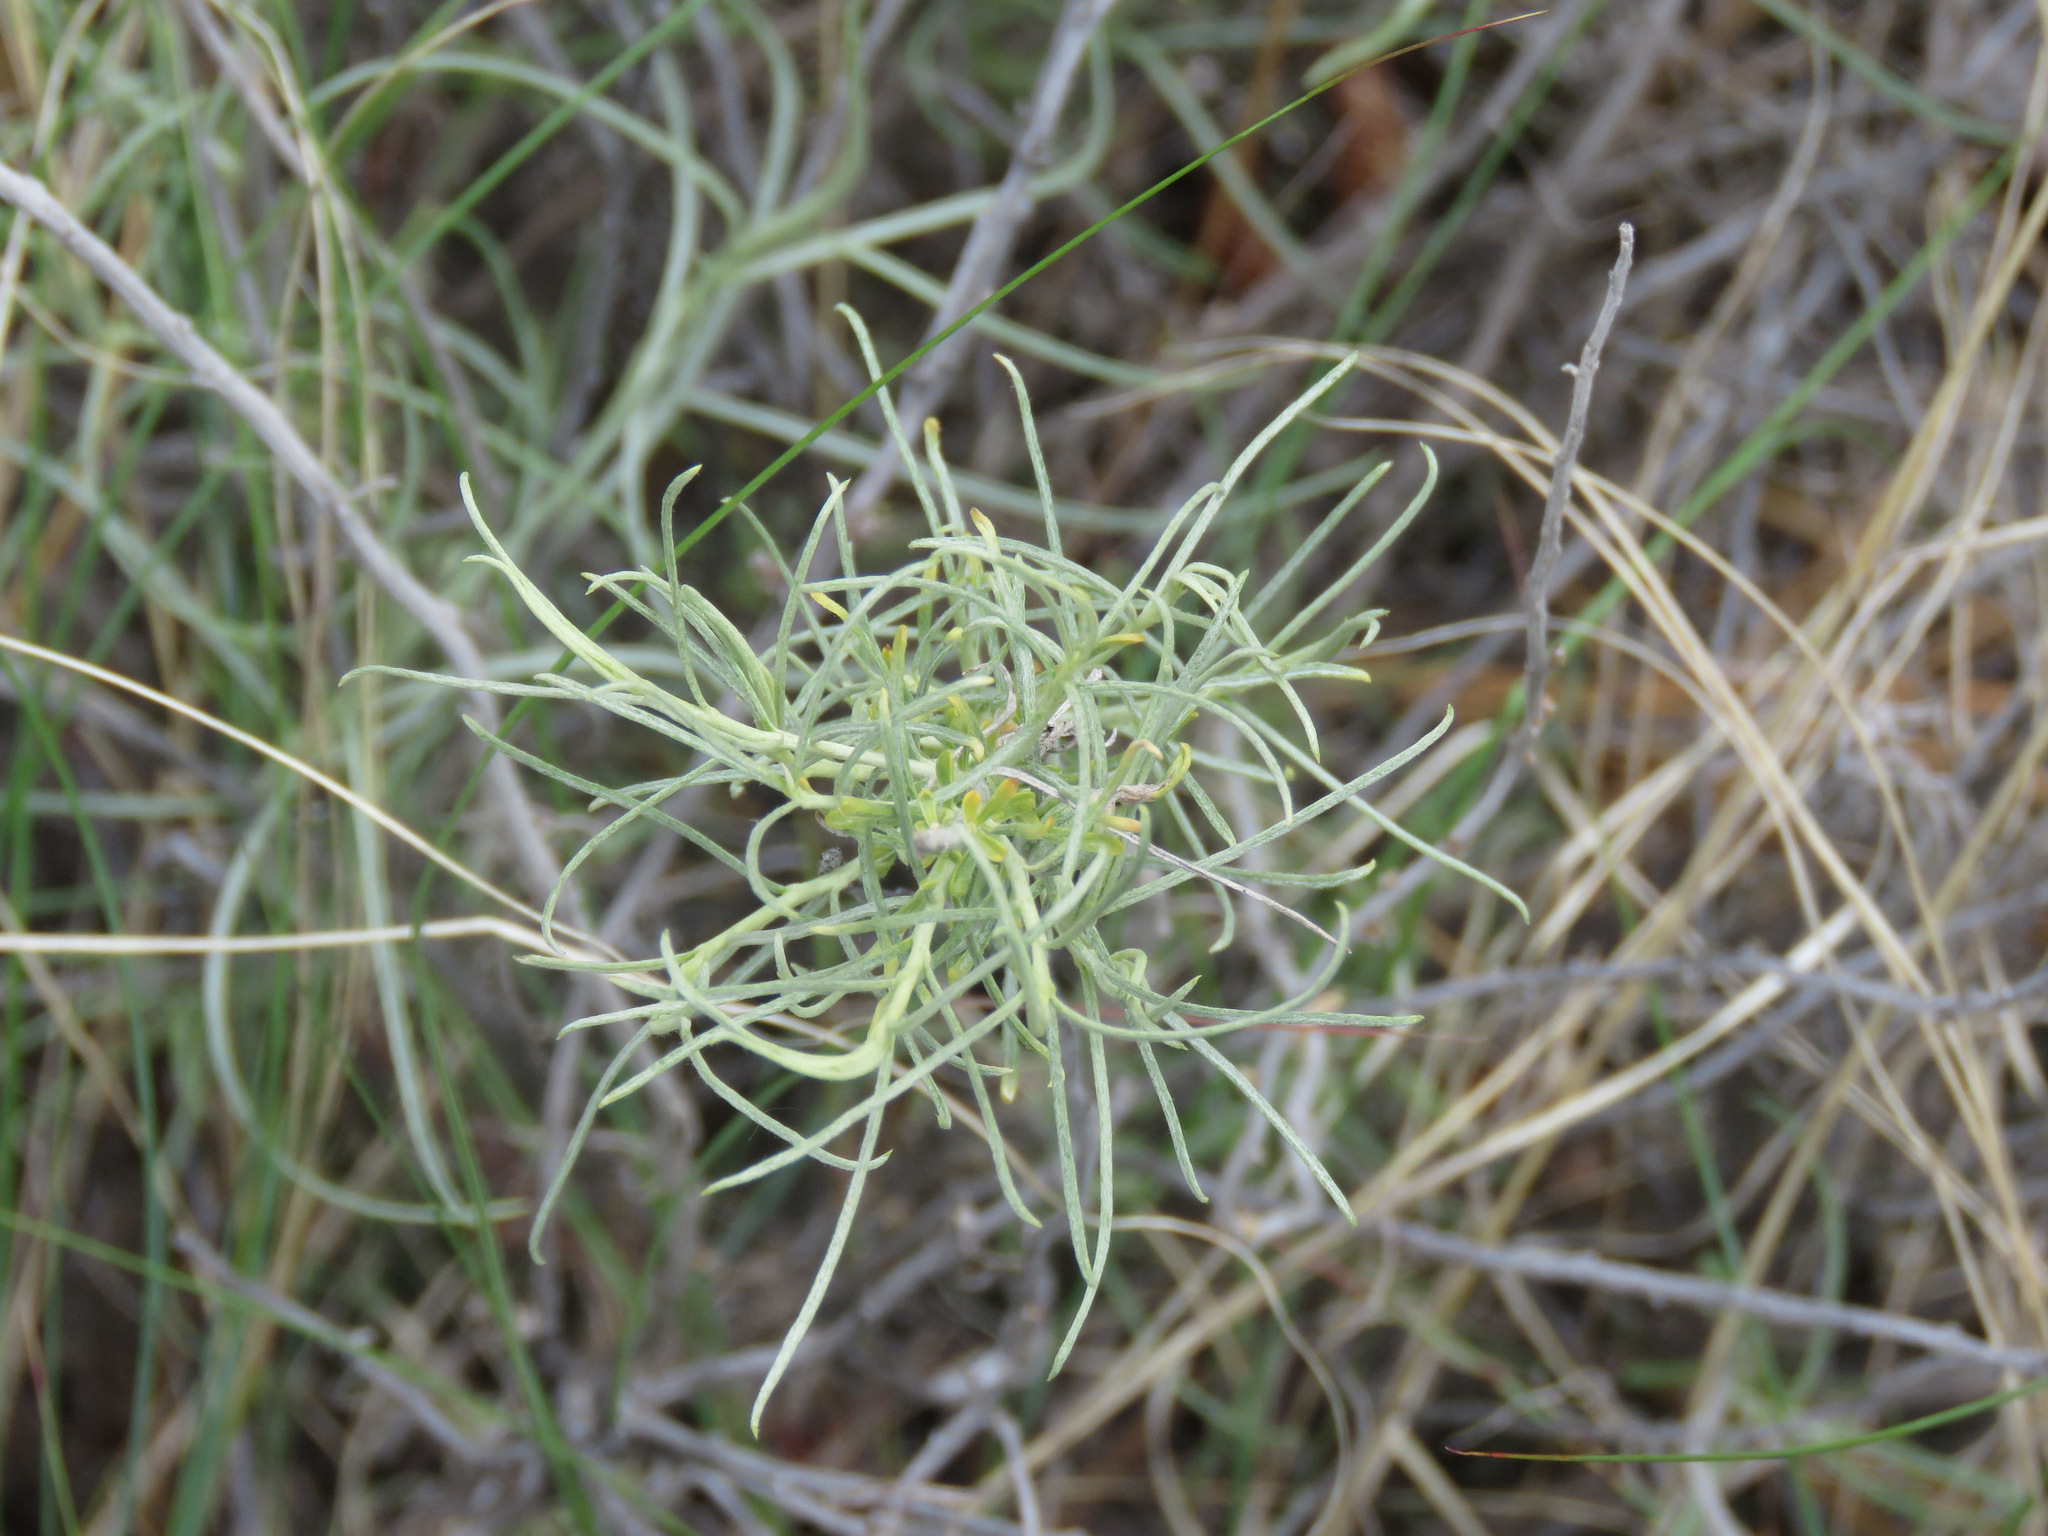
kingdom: Plantae
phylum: Tracheophyta
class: Magnoliopsida
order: Asterales
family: Asteraceae
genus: Ericameria
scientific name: Ericameria nauseosa
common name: Rubber rabbitbrush
